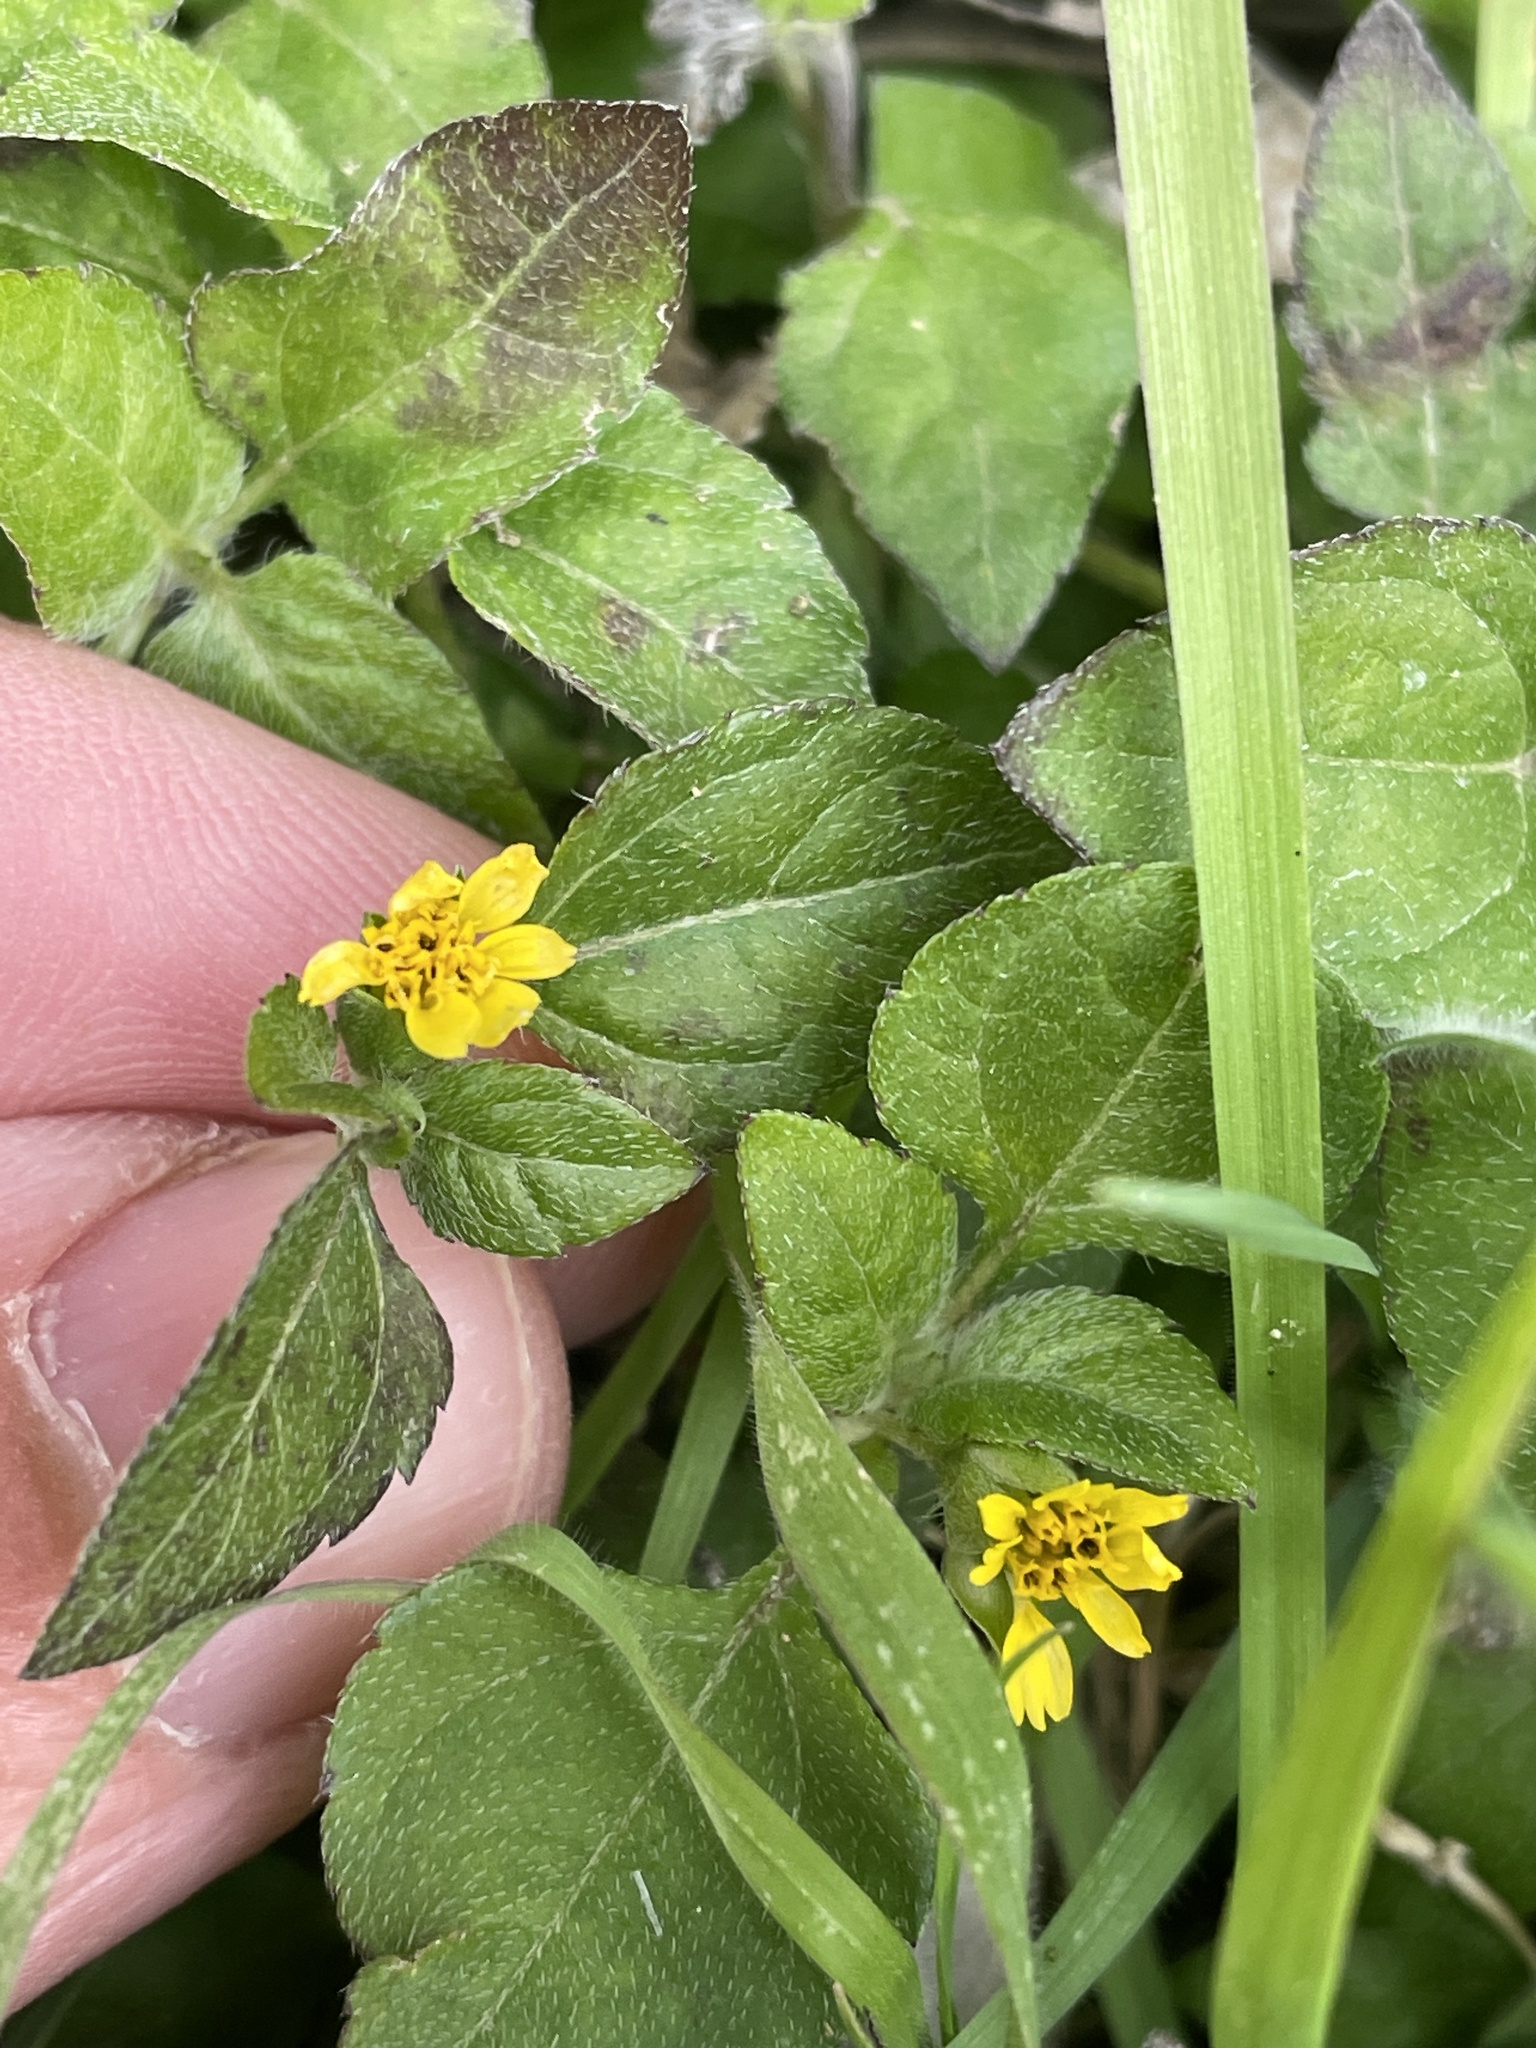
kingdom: Plantae
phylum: Tracheophyta
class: Magnoliopsida
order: Asterales
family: Asteraceae
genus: Calyptocarpus
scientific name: Calyptocarpus vialis
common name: Straggler daisy
